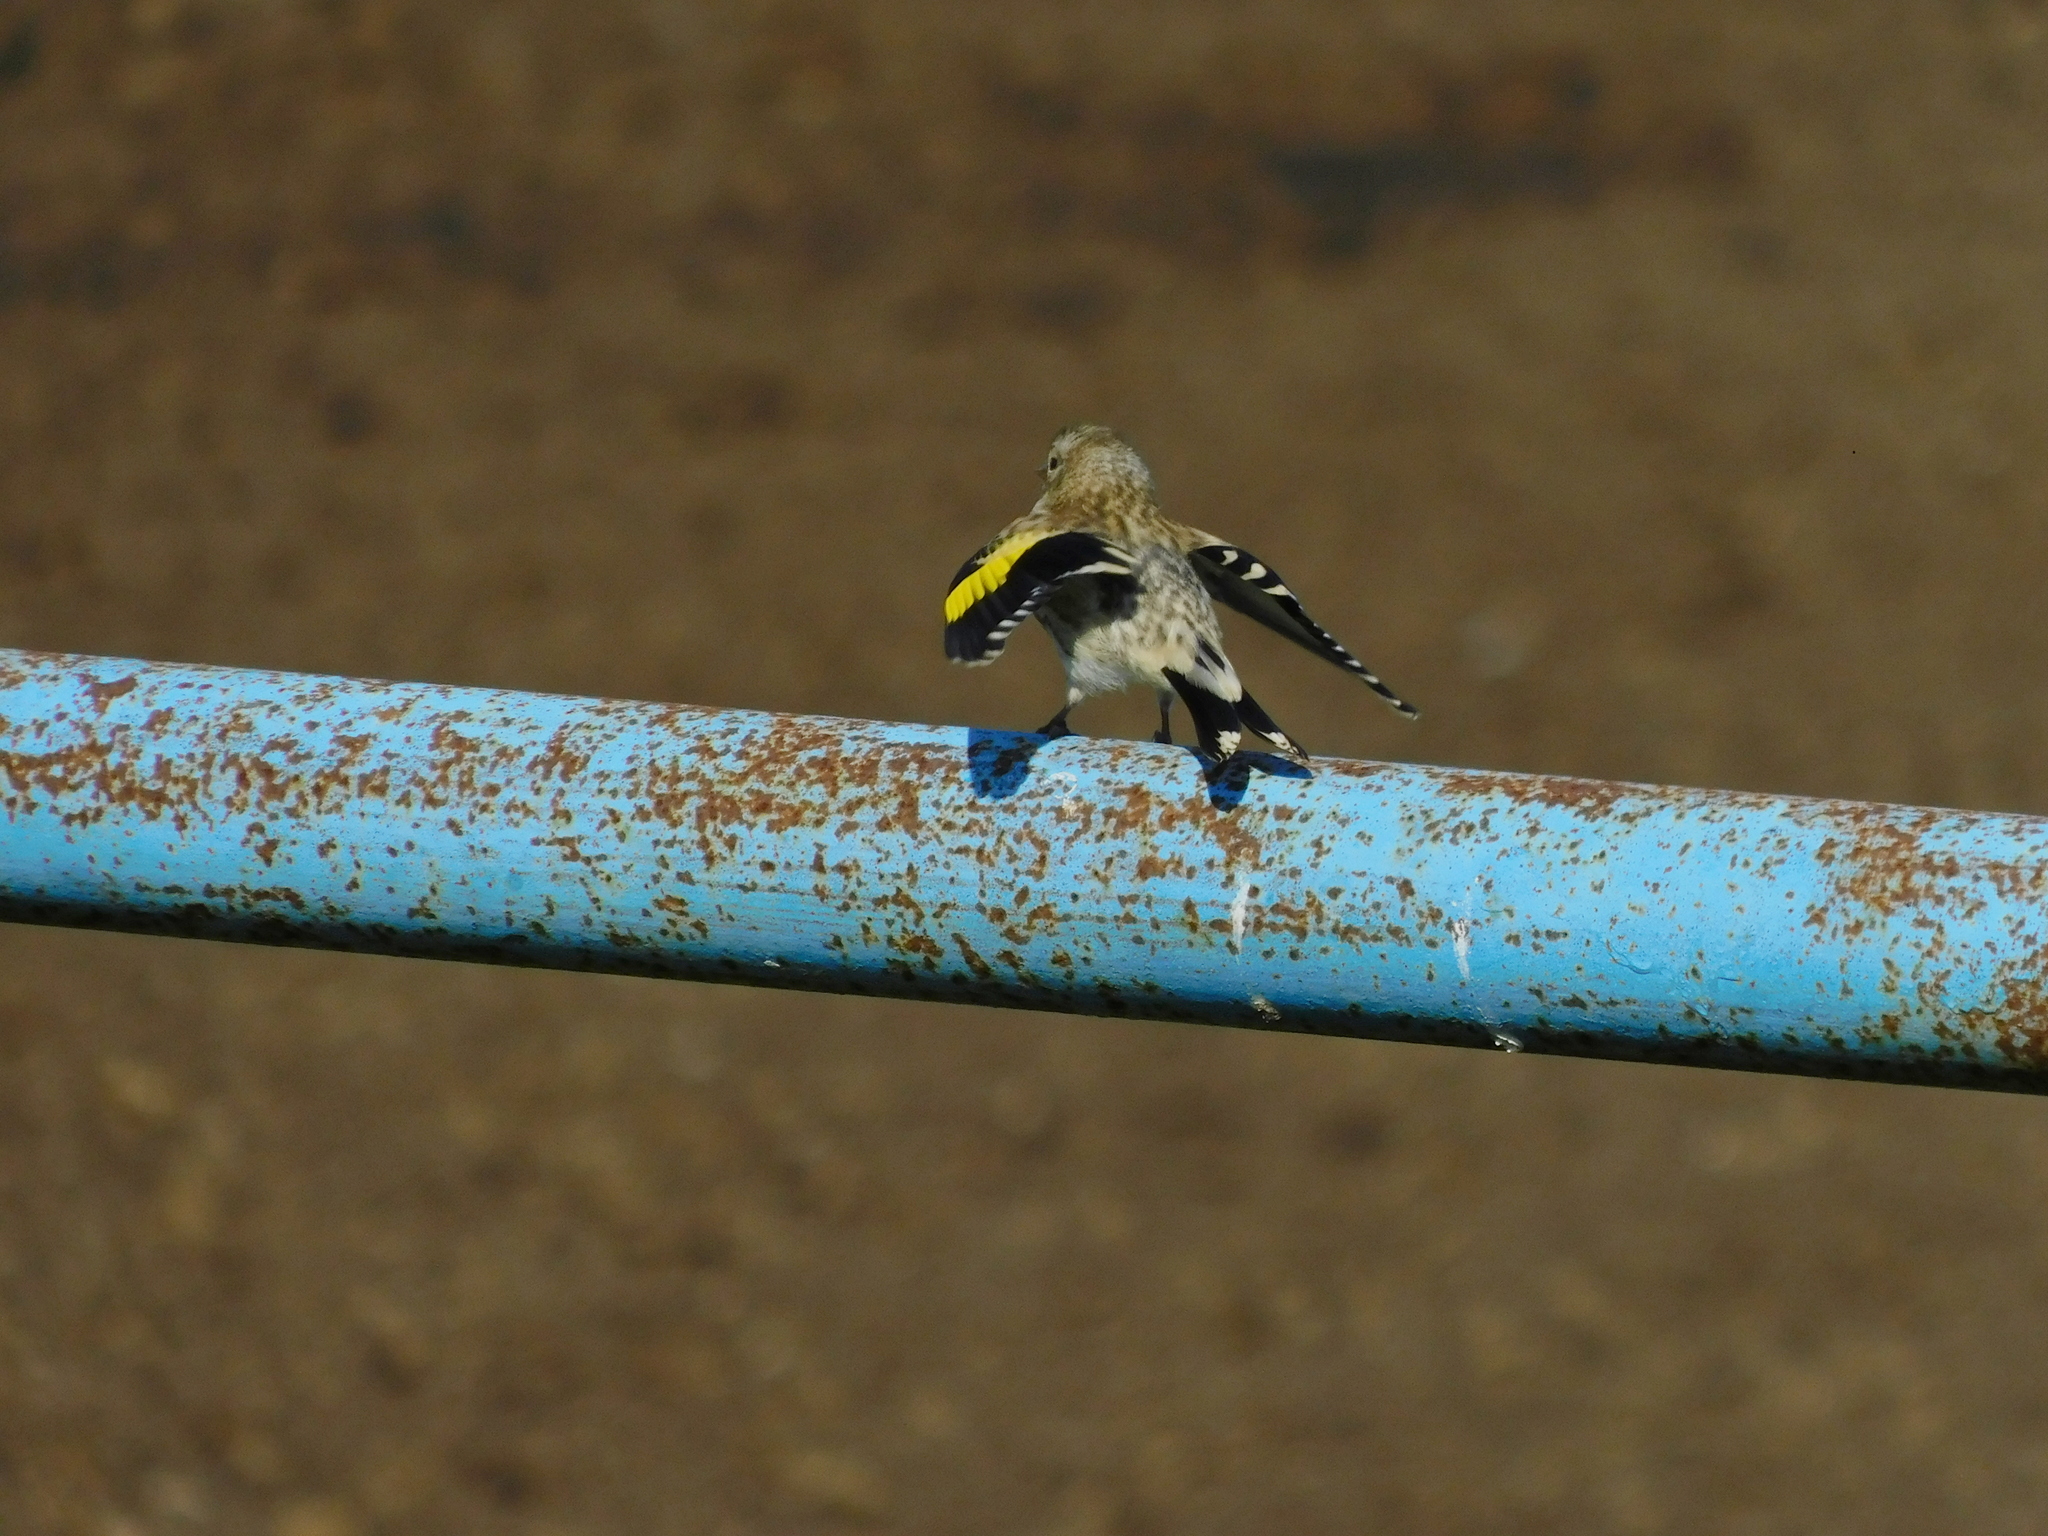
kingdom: Animalia
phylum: Chordata
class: Aves
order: Passeriformes
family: Fringillidae
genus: Carduelis
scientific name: Carduelis carduelis
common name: European goldfinch
